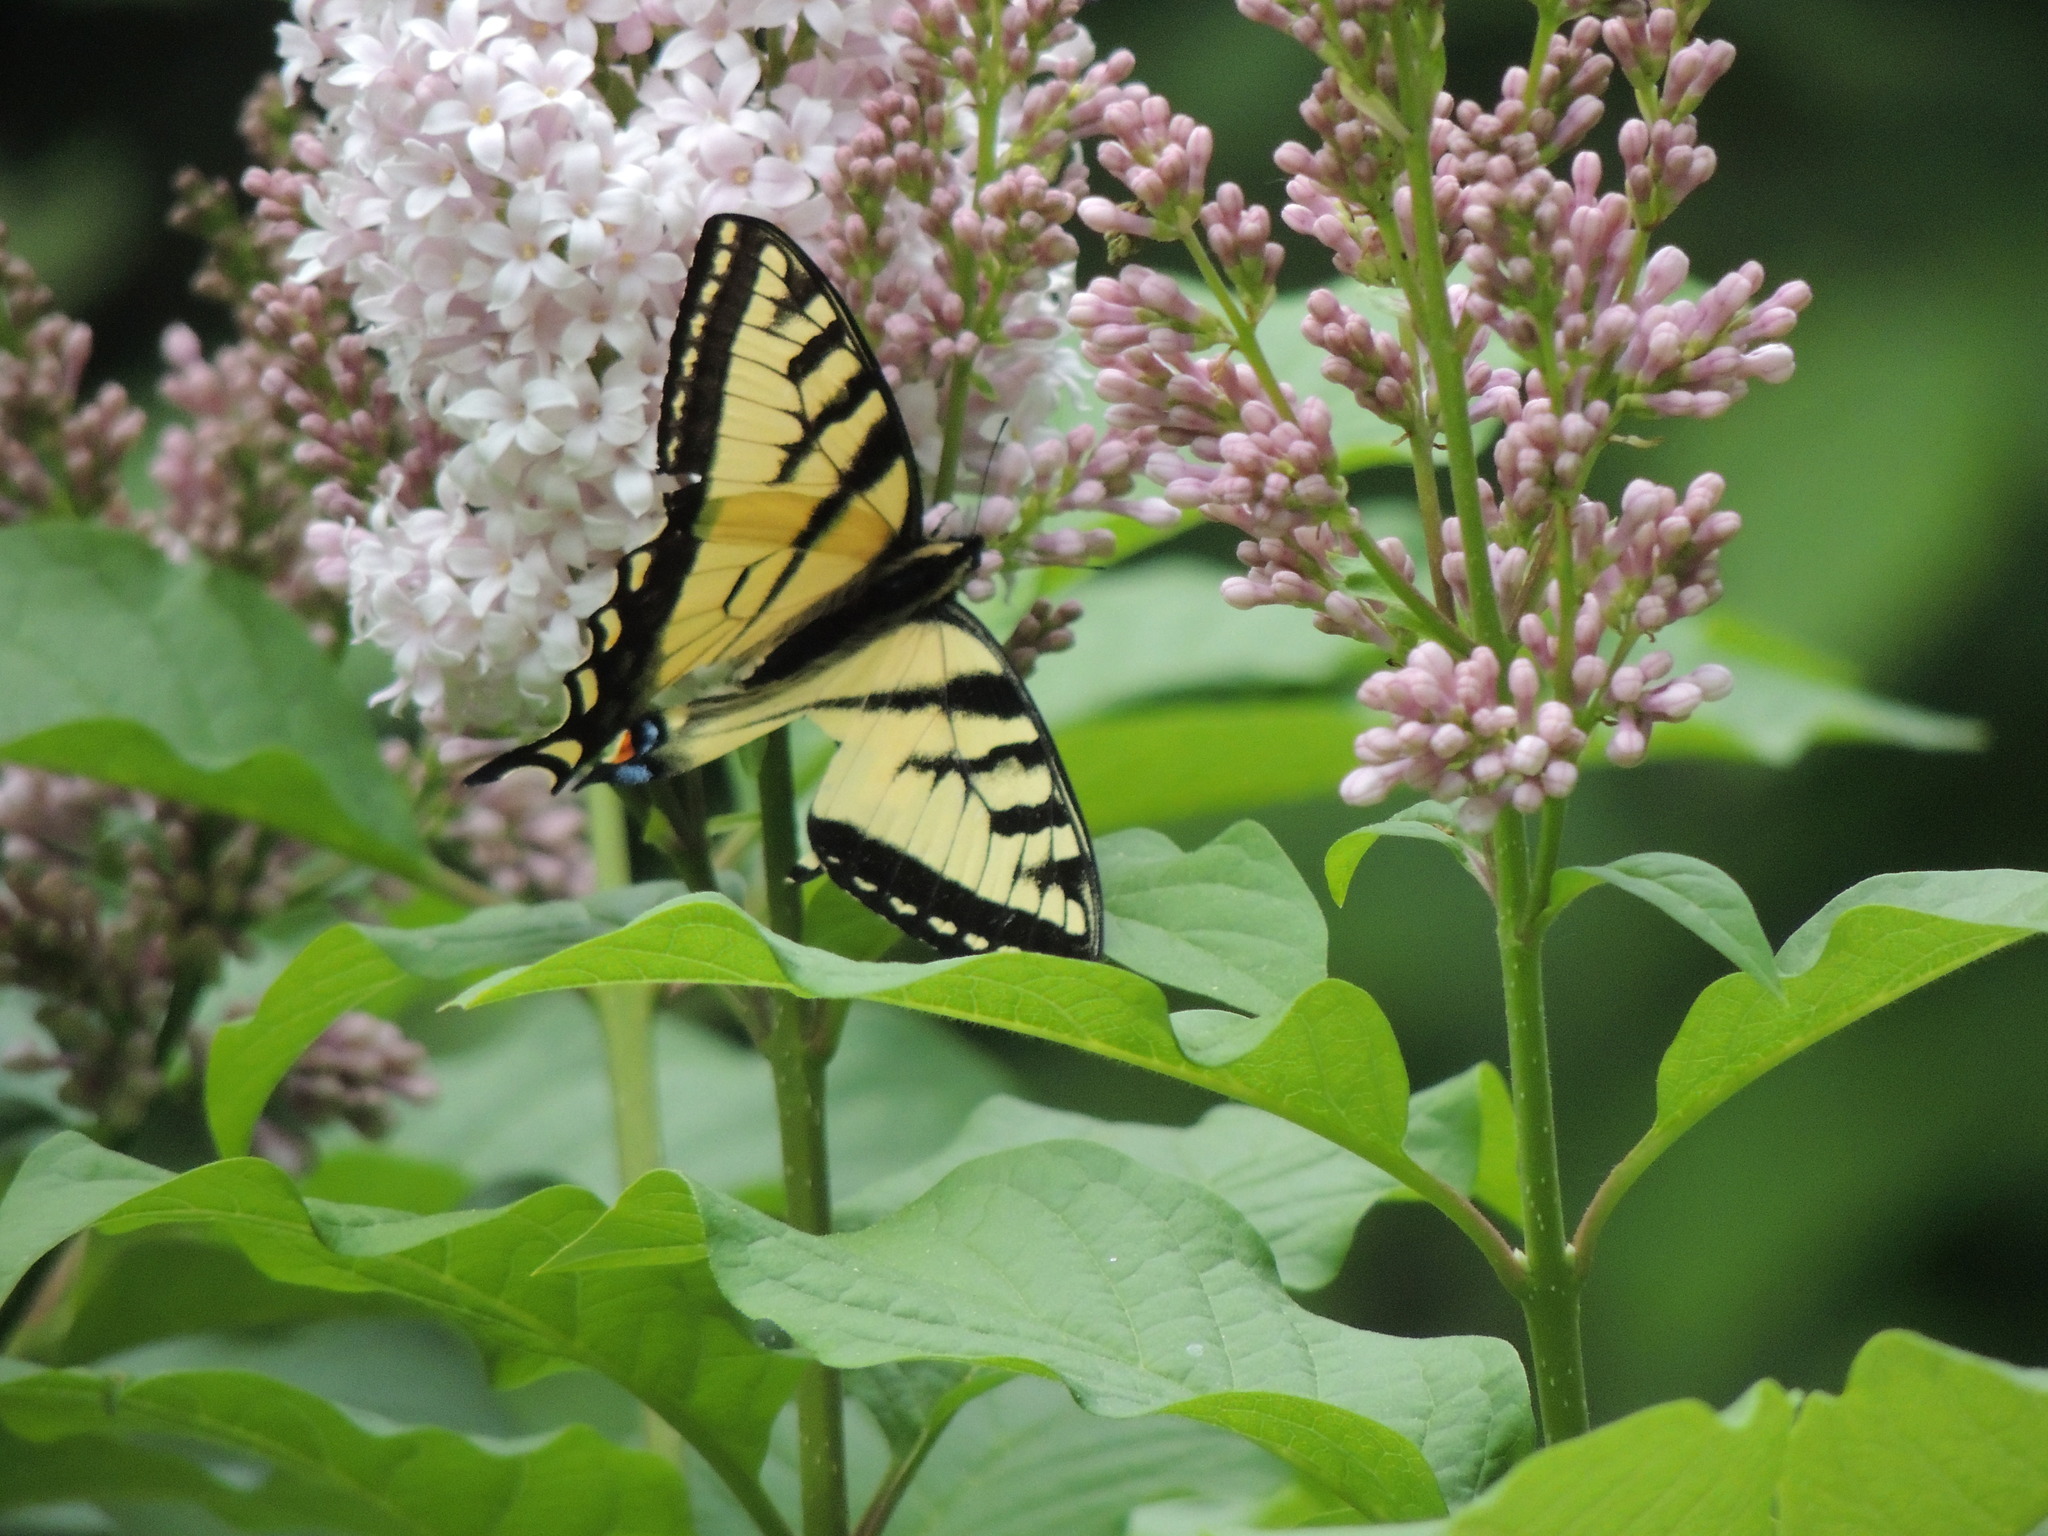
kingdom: Animalia
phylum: Arthropoda
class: Insecta
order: Lepidoptera
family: Papilionidae
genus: Papilio
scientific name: Papilio canadensis
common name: Canadian tiger swallowtail
